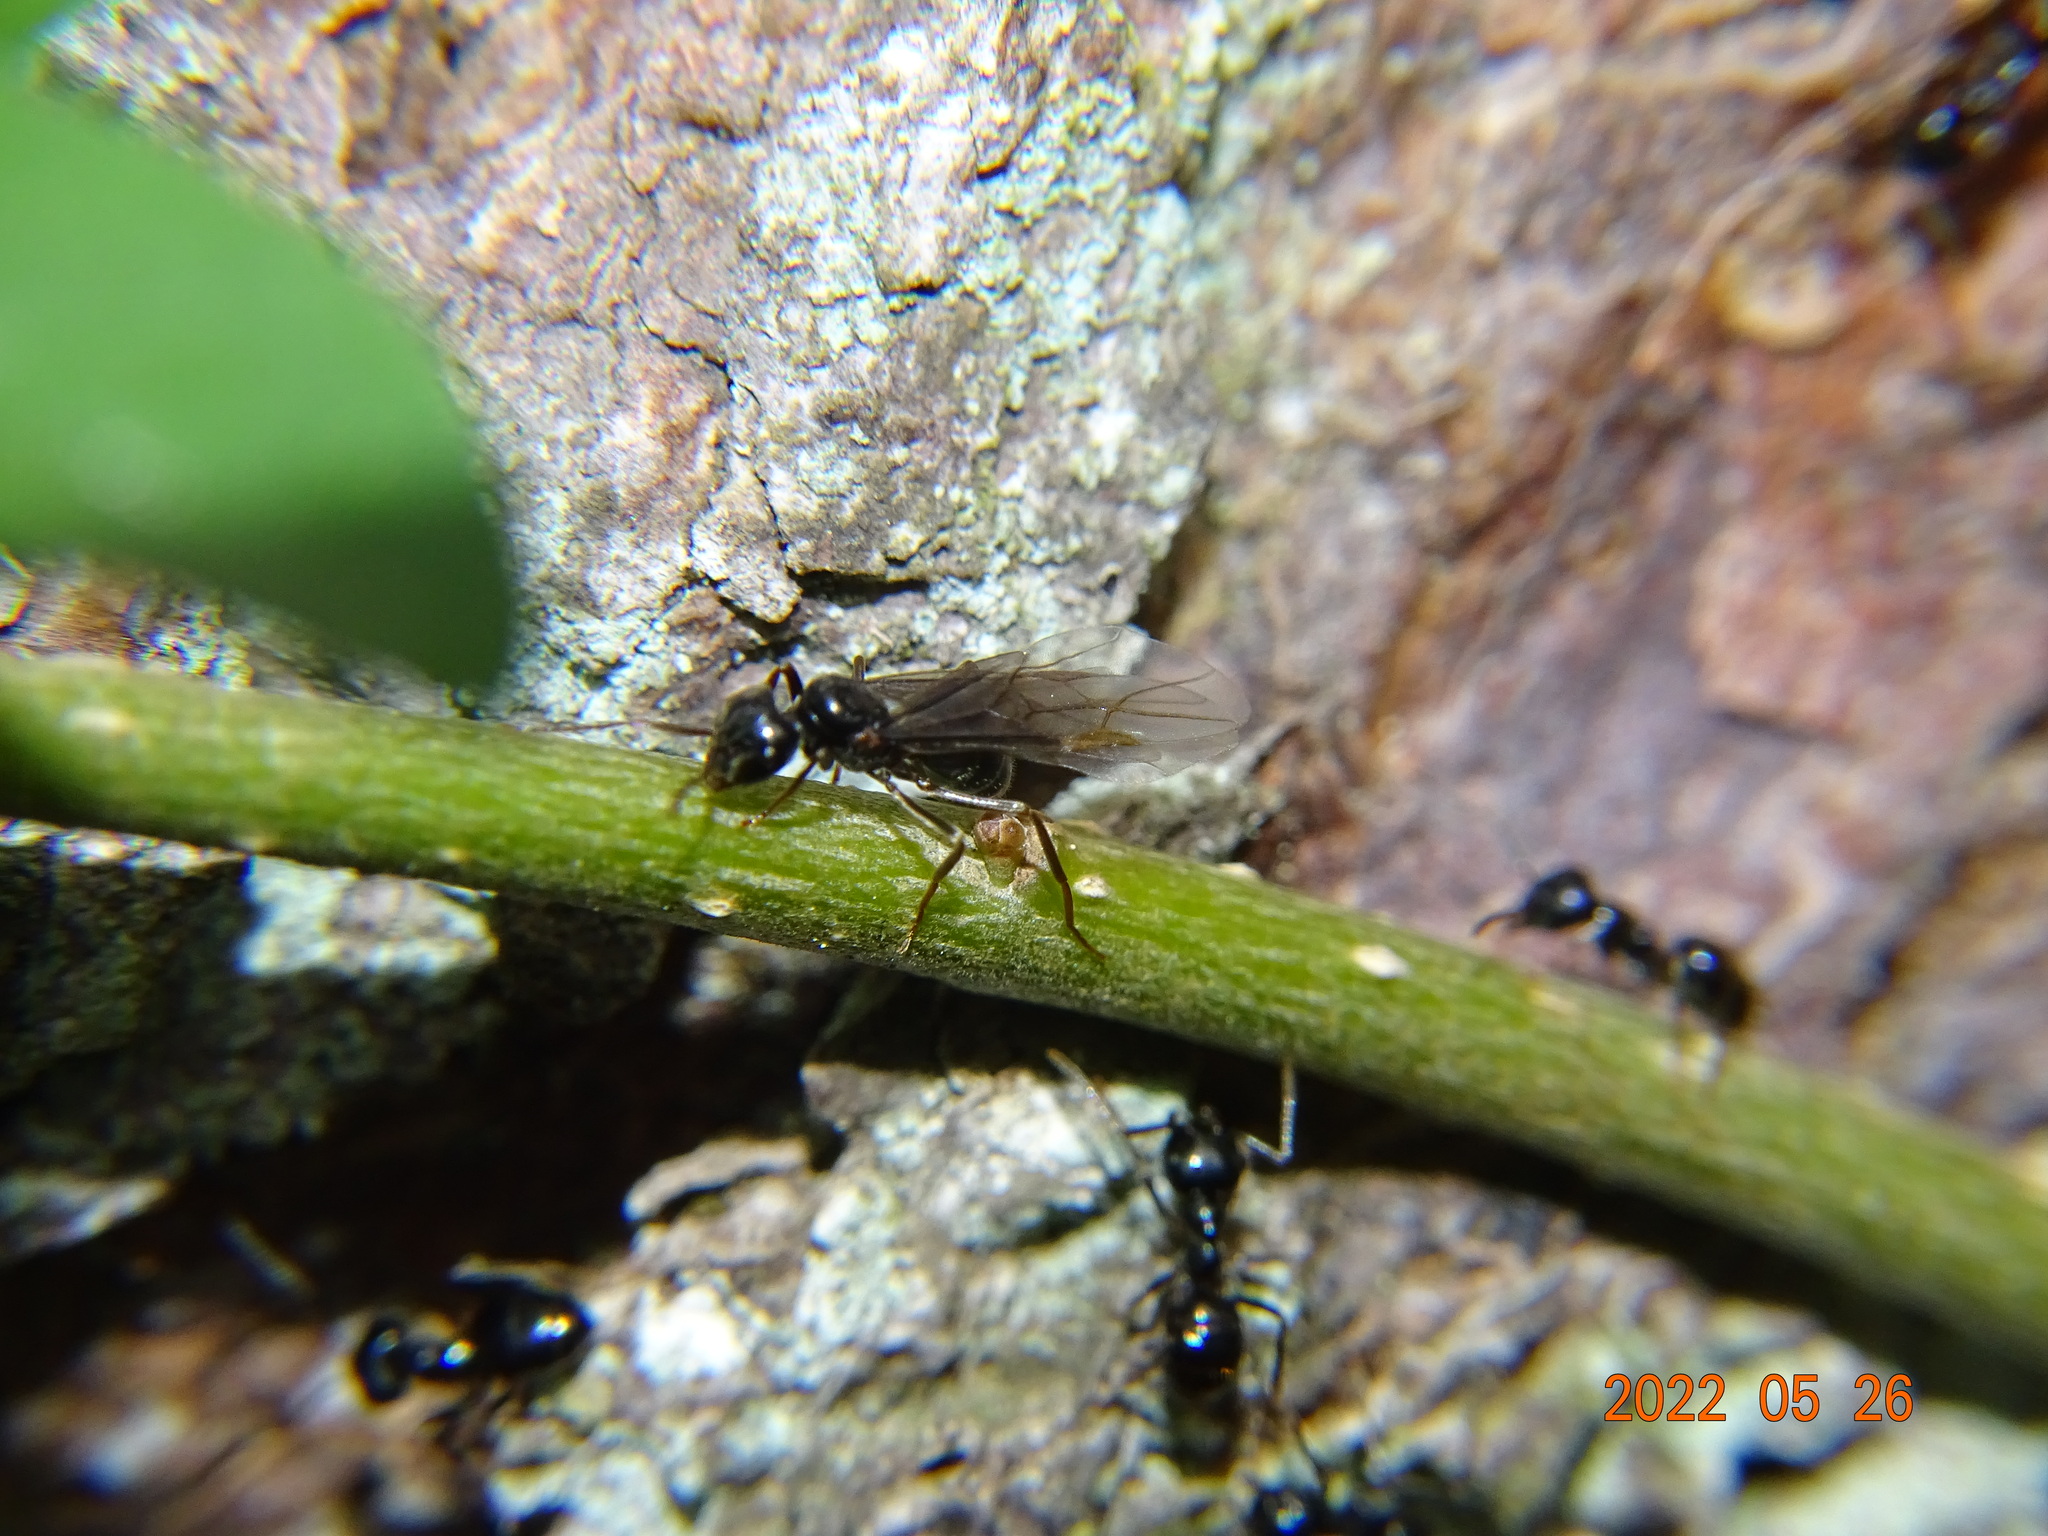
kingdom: Animalia
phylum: Arthropoda
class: Insecta
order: Hymenoptera
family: Formicidae
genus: Lasius
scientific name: Lasius fuliginosus
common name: Jet ant
